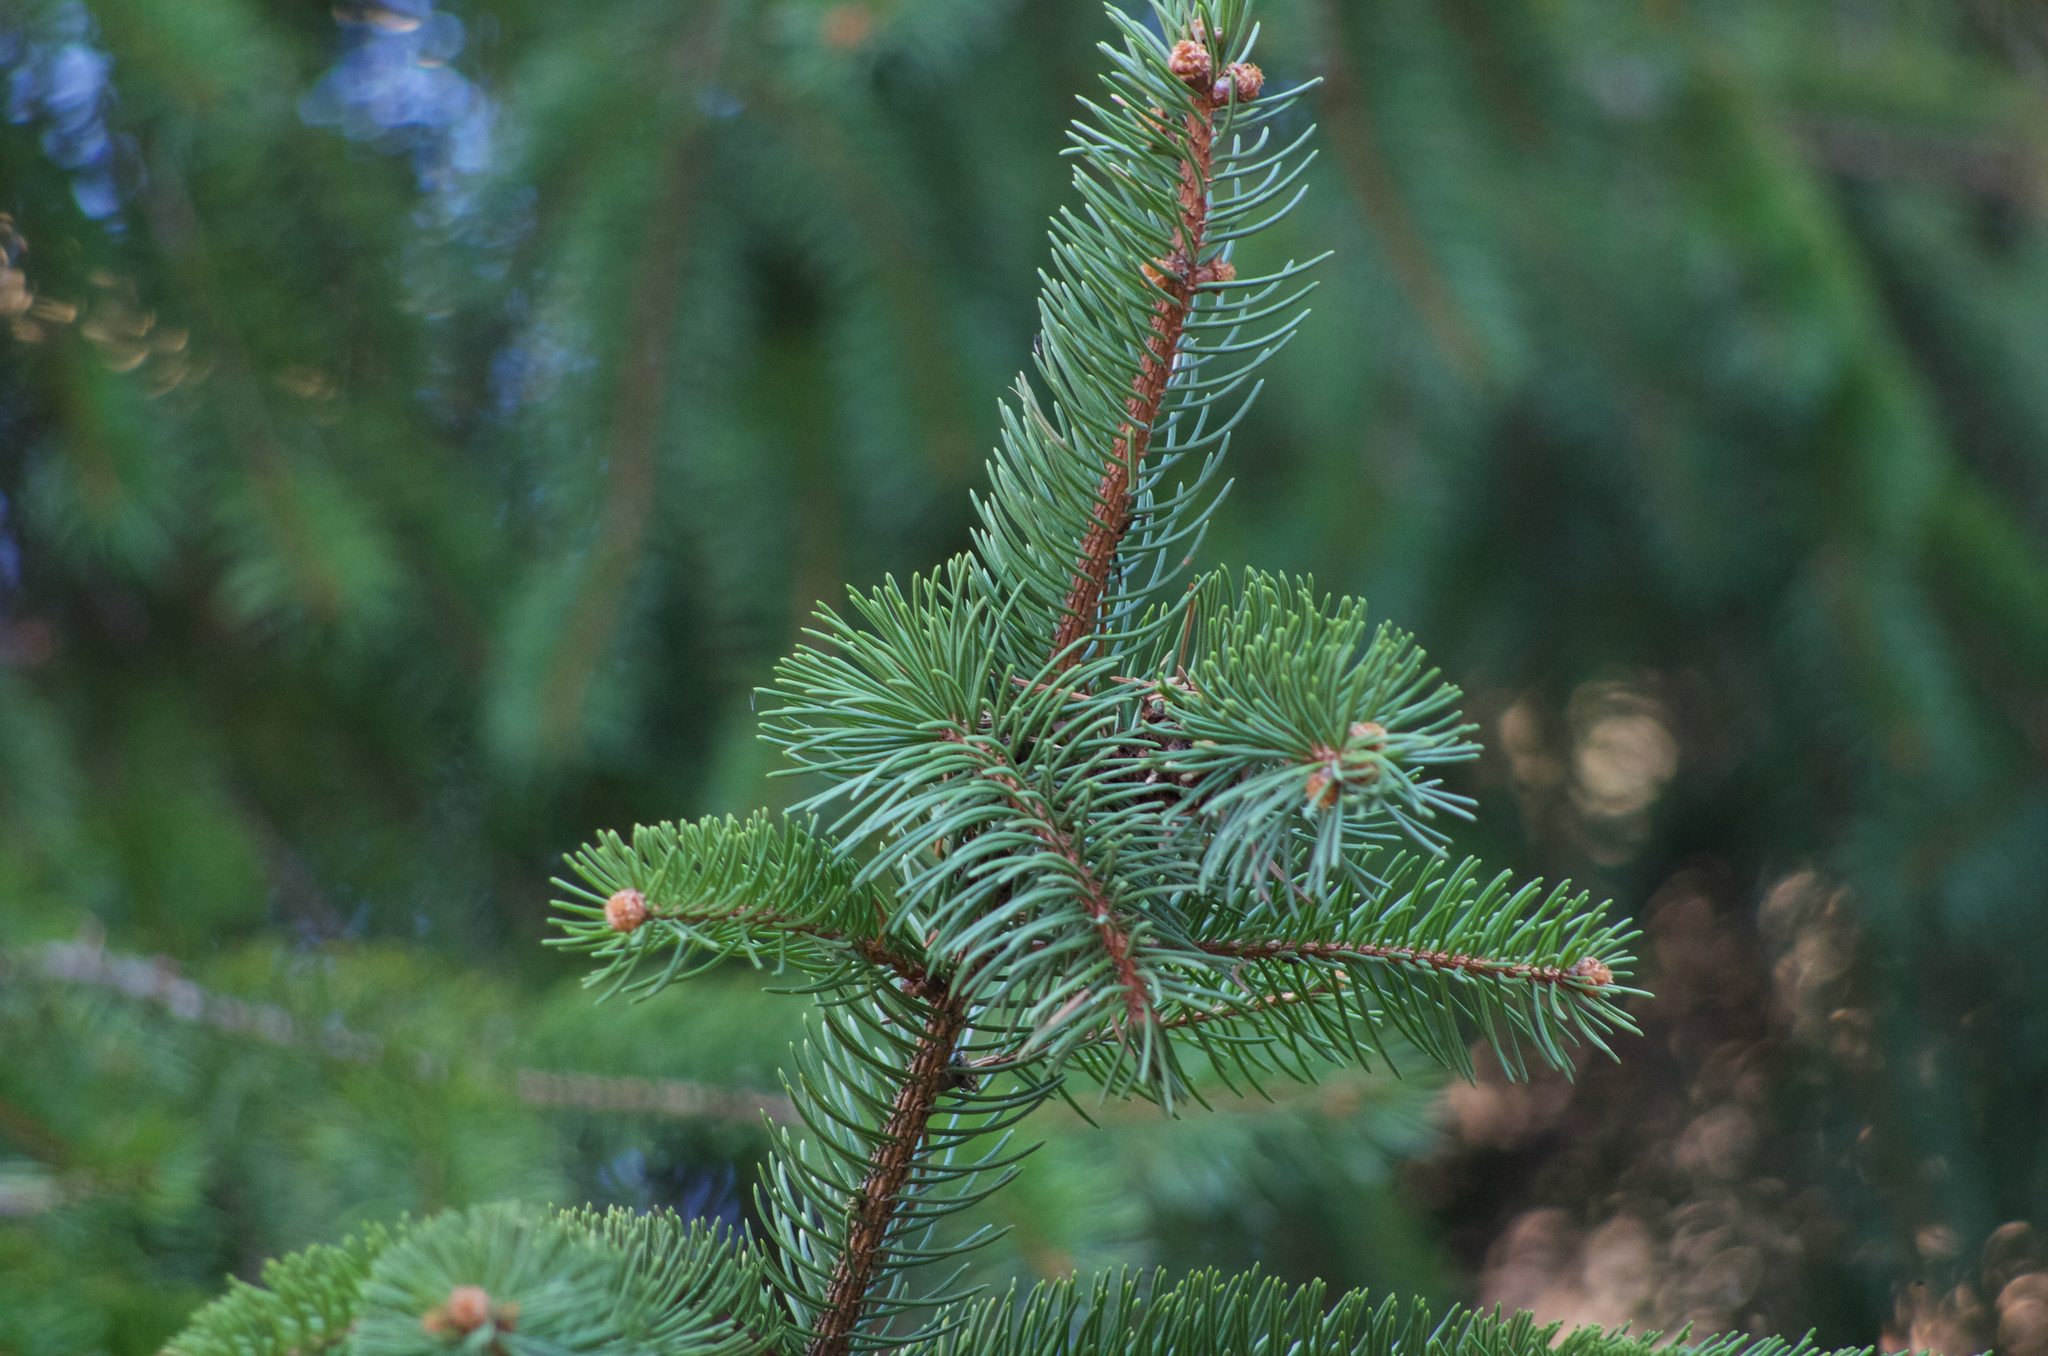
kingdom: Plantae
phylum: Tracheophyta
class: Pinopsida
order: Pinales
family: Pinaceae
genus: Picea
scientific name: Picea abies
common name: Norway spruce
